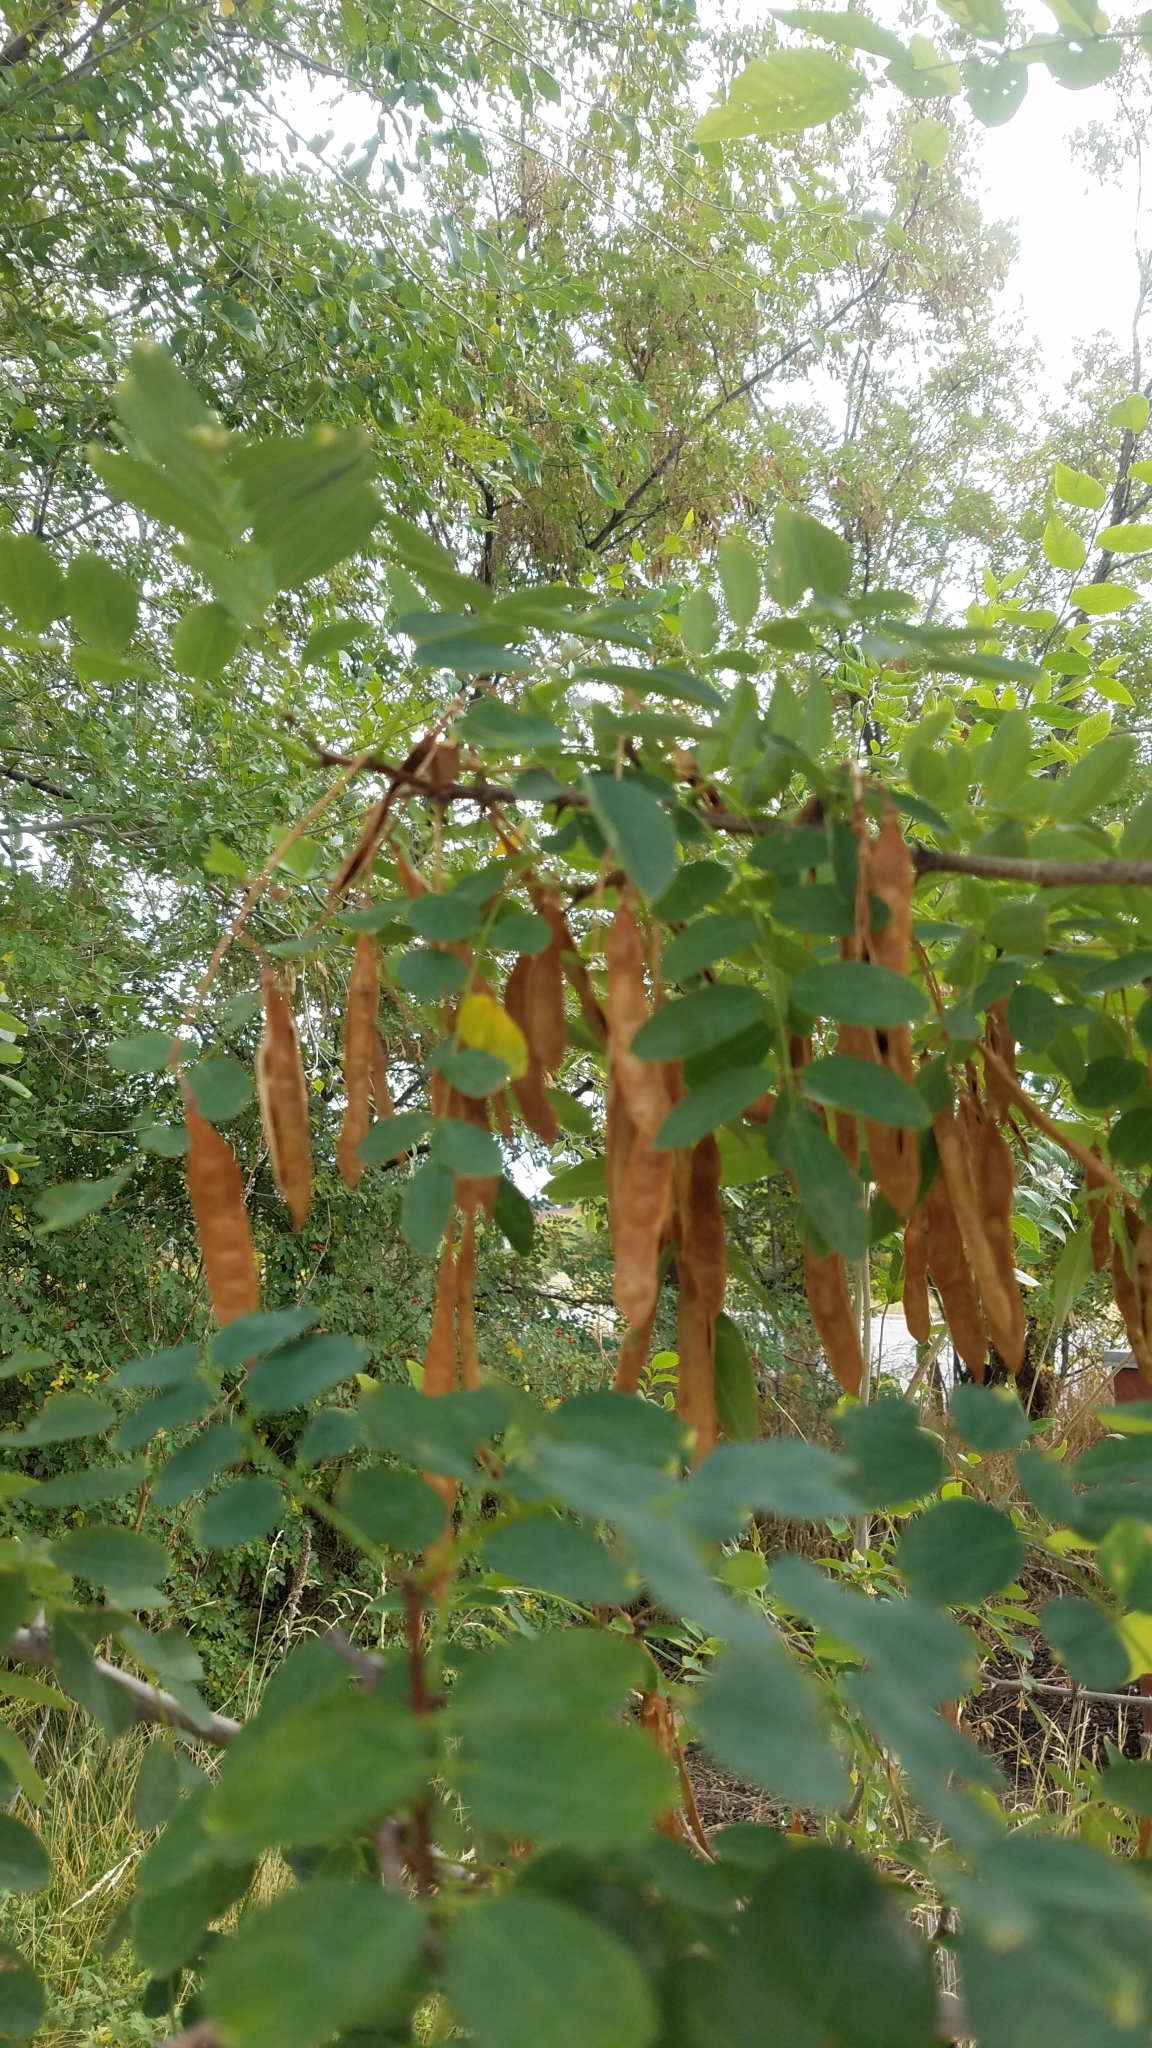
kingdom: Plantae
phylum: Tracheophyta
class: Magnoliopsida
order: Fabales
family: Fabaceae
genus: Robinia
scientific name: Robinia pseudoacacia
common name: Black locust
